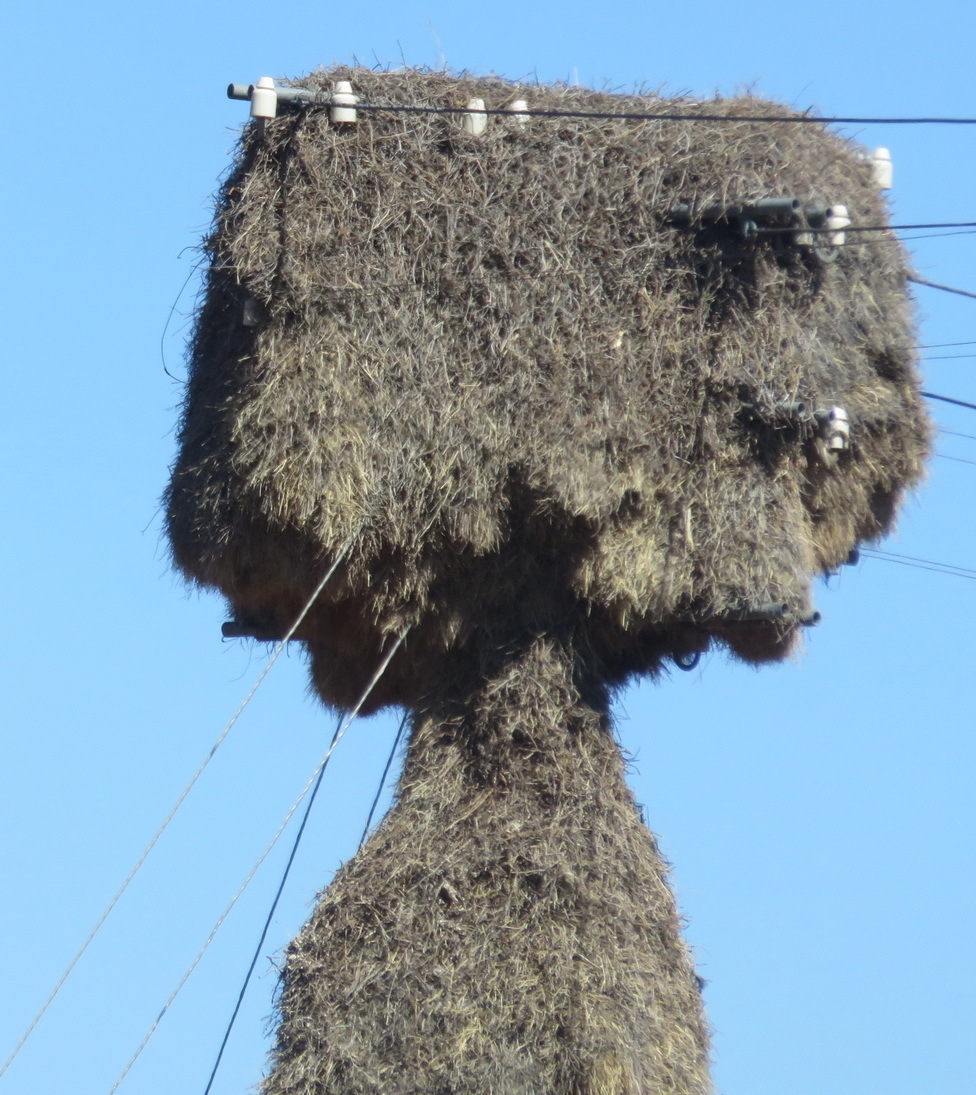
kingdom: Animalia
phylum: Chordata
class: Aves
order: Passeriformes
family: Passeridae
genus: Philetairus
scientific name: Philetairus socius
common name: Sociable weaver
